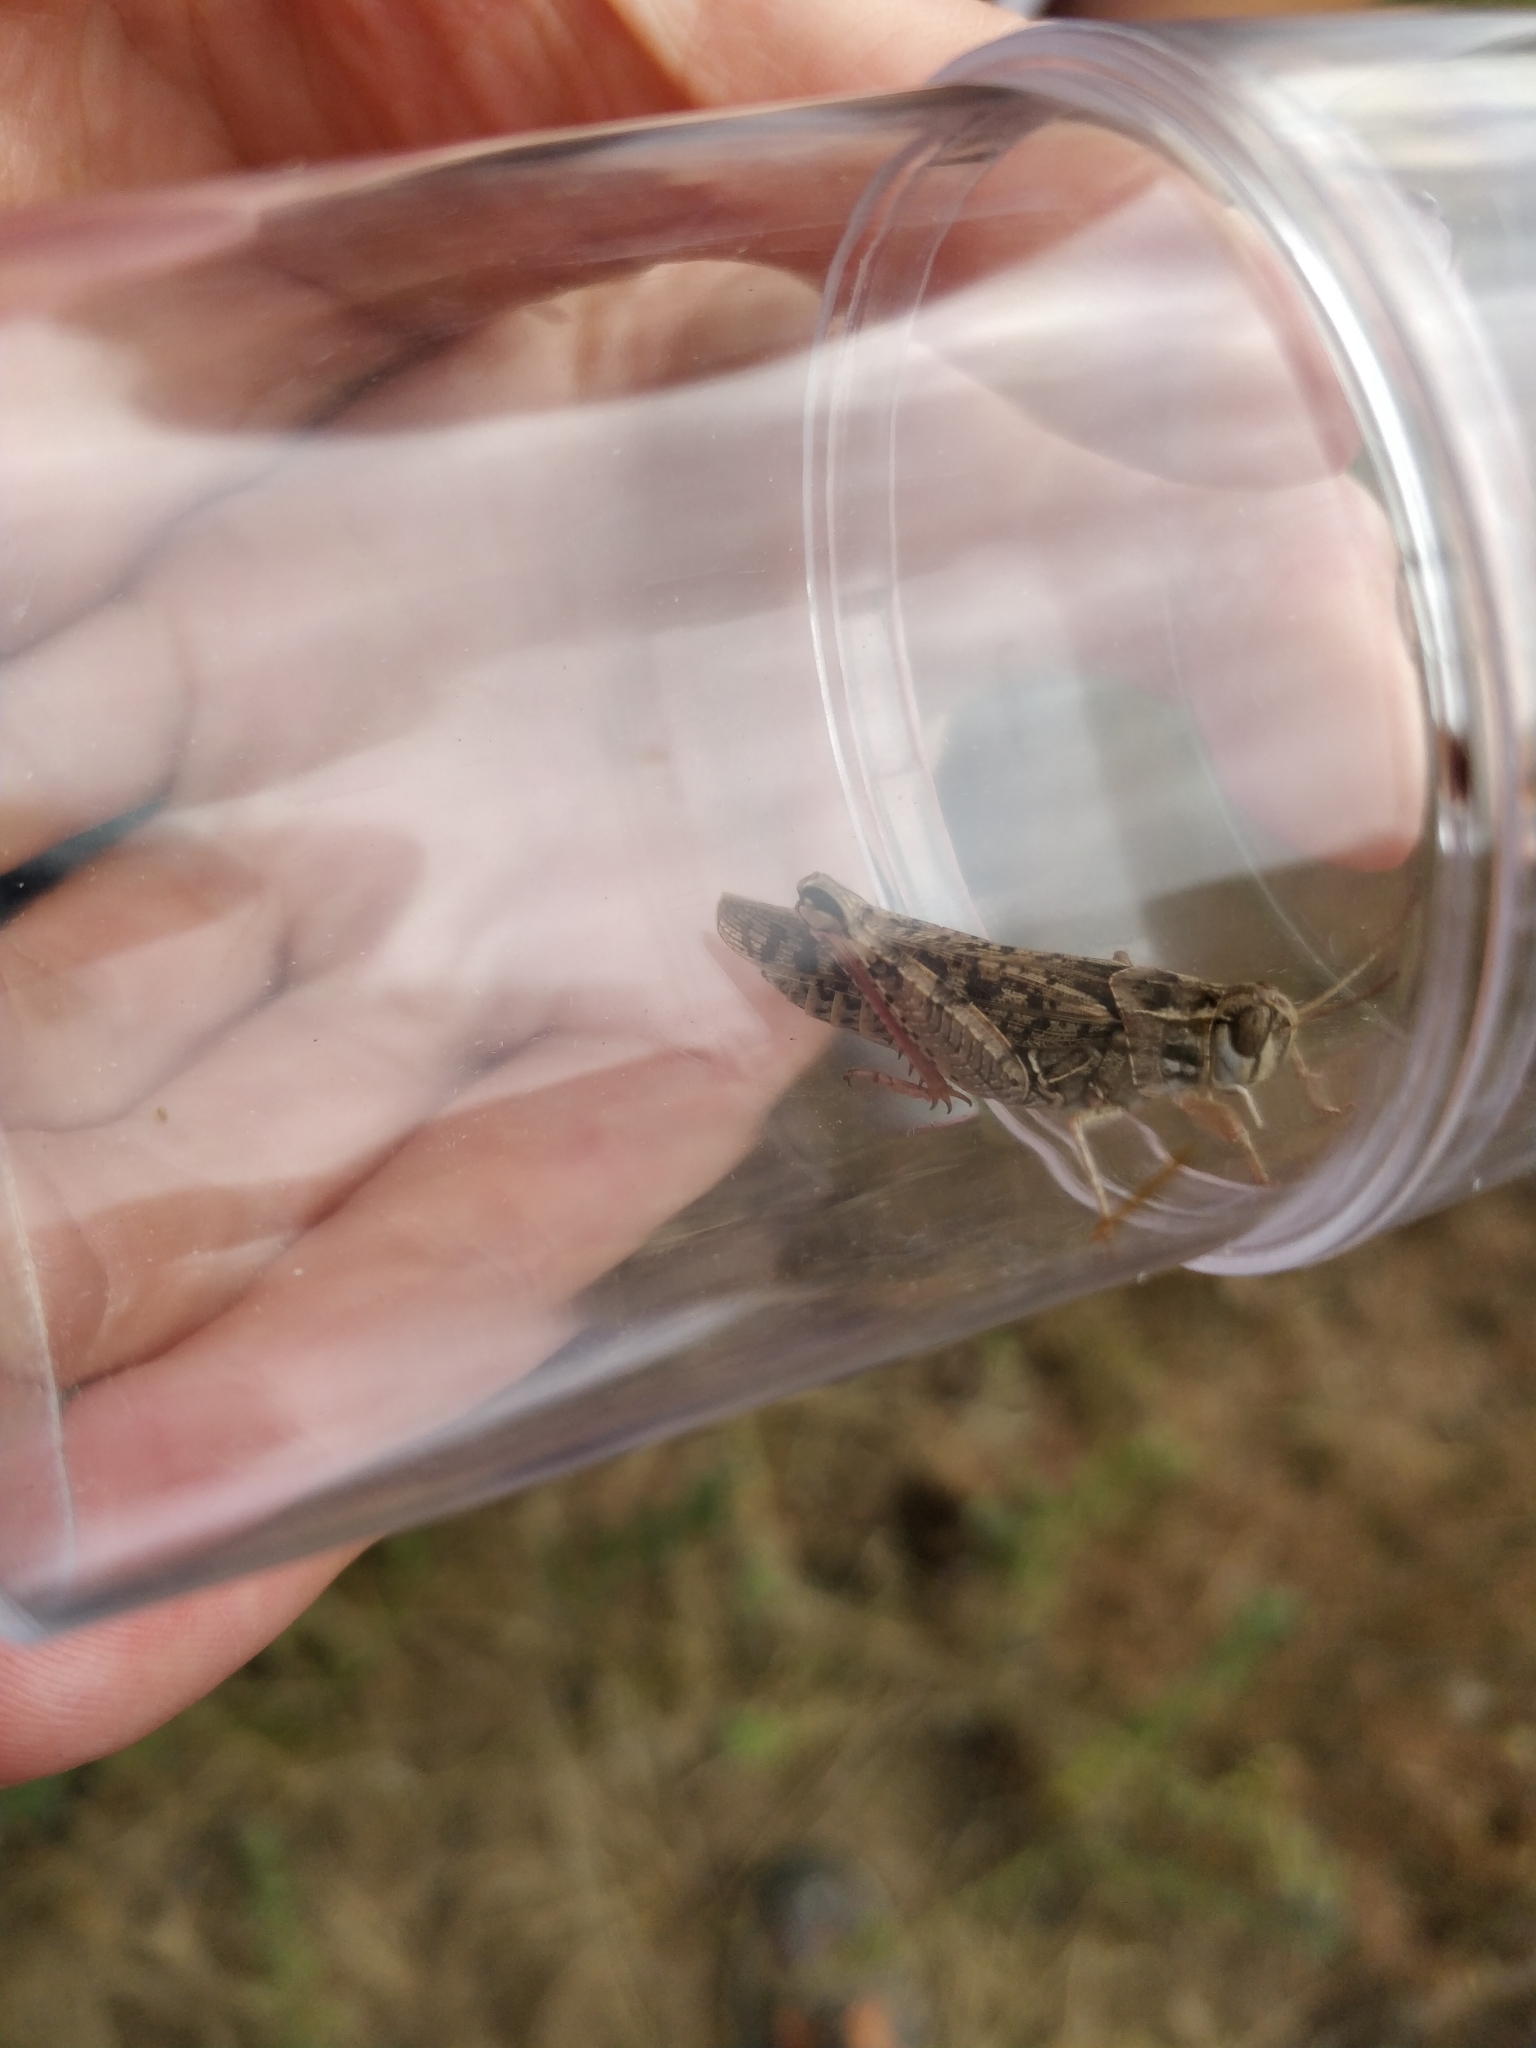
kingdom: Animalia
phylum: Arthropoda
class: Insecta
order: Orthoptera
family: Acrididae
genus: Calliptamus
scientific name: Calliptamus italicus
